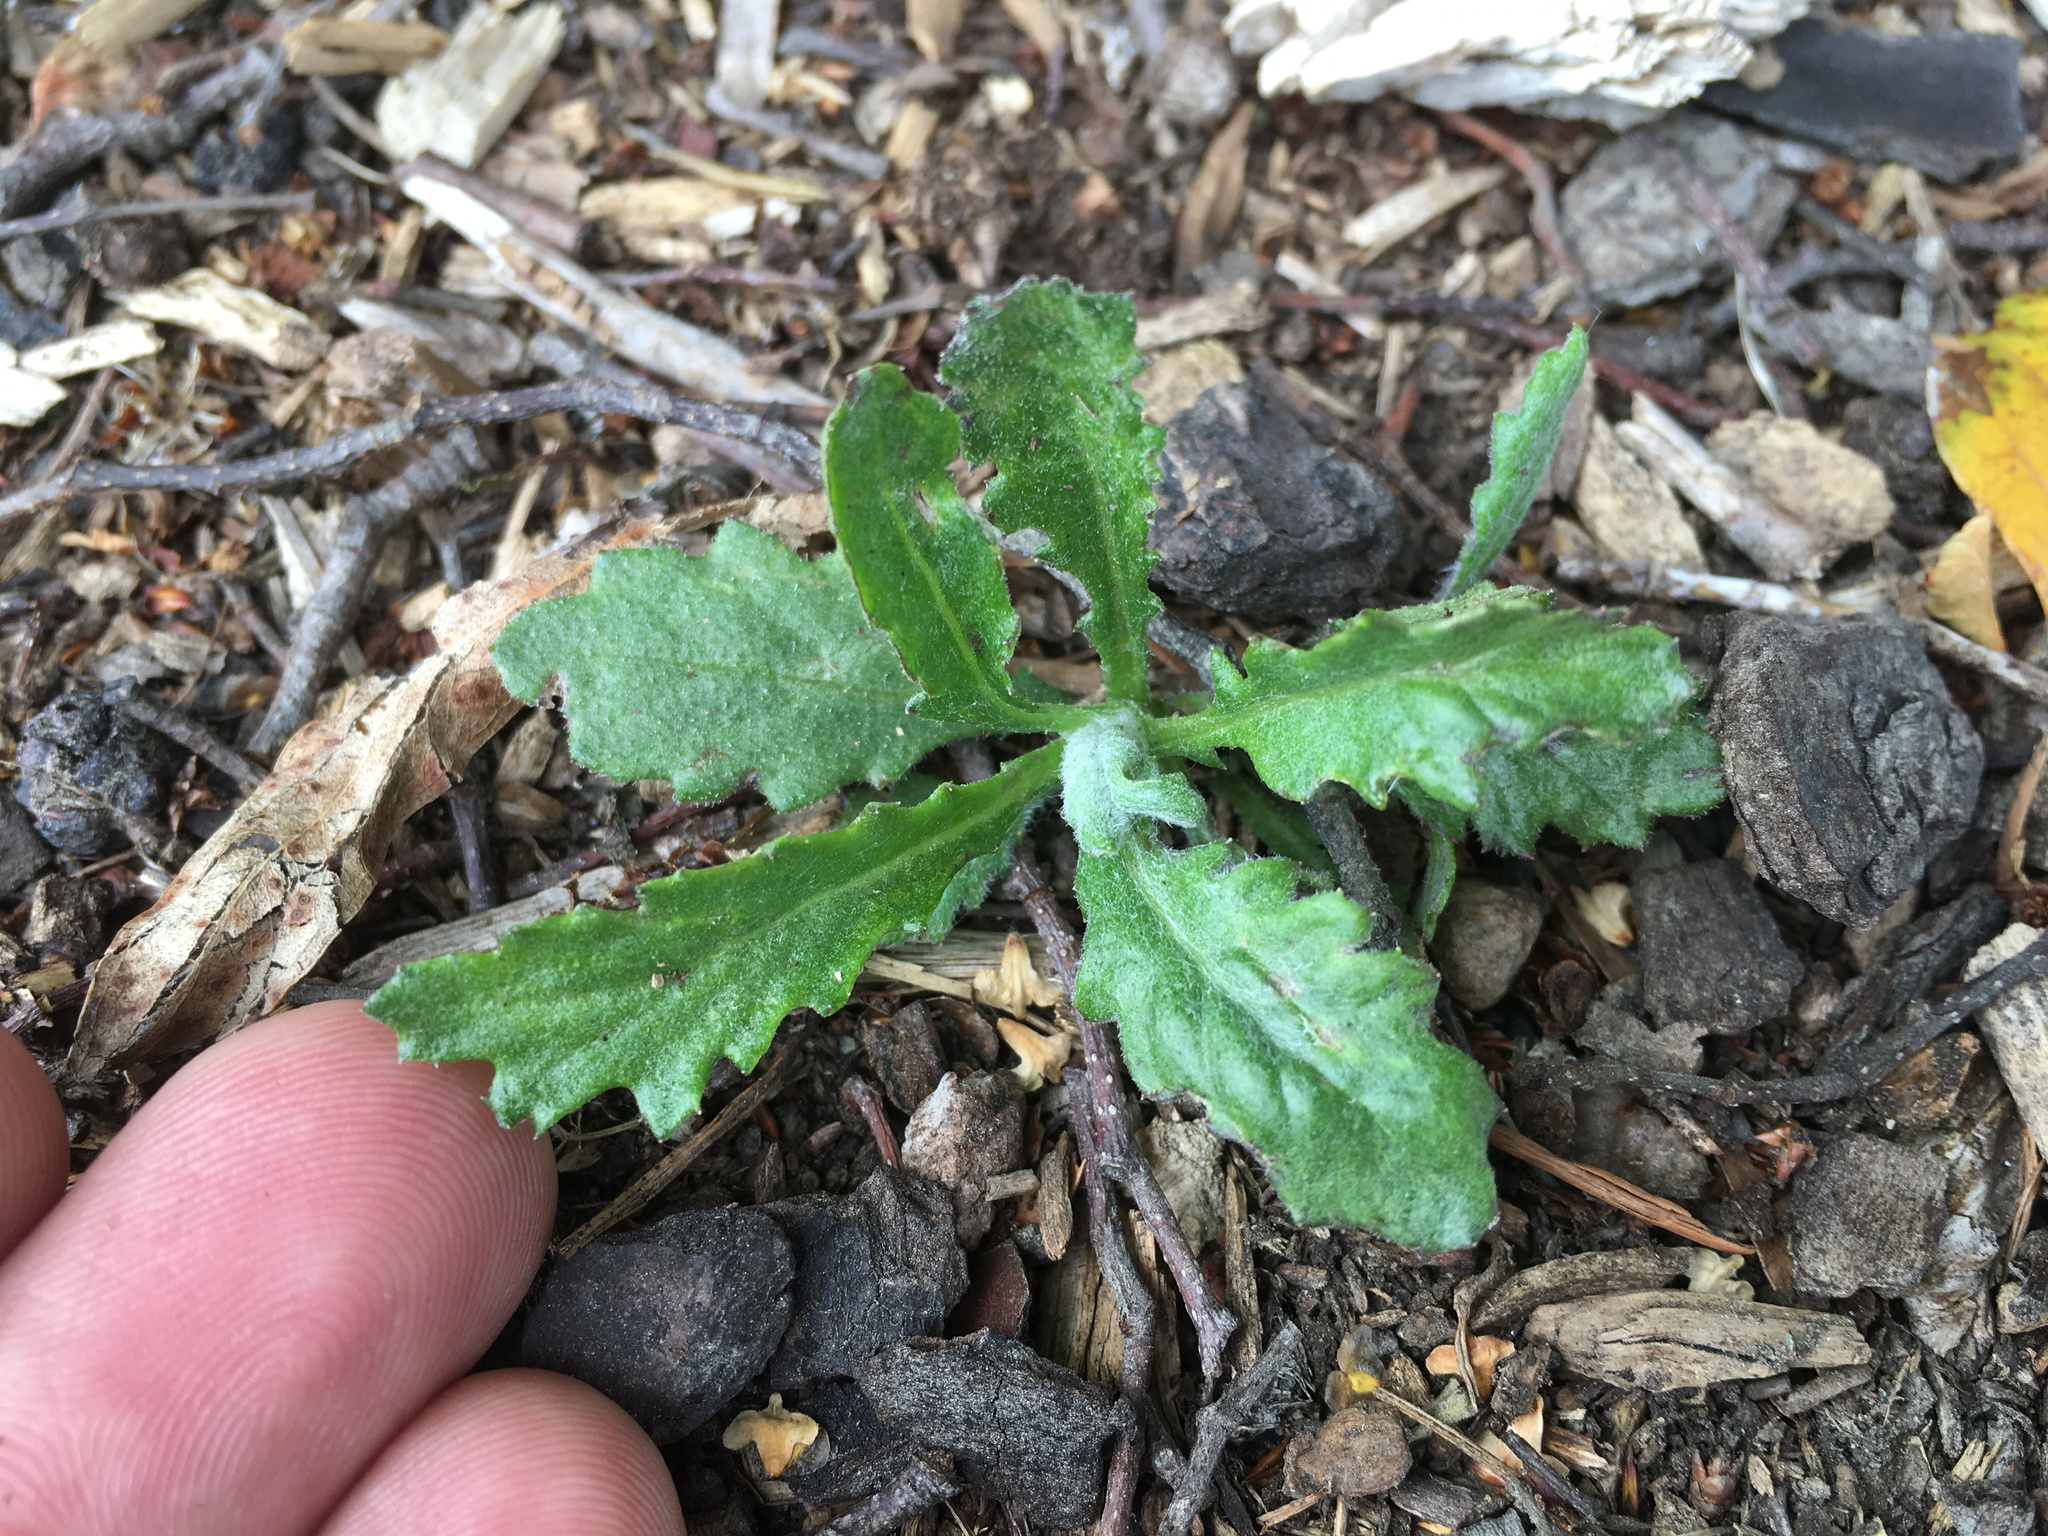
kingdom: Plantae
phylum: Tracheophyta
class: Magnoliopsida
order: Asterales
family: Asteraceae
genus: Senecio
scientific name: Senecio glomeratus
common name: Cutleaf burnweed
